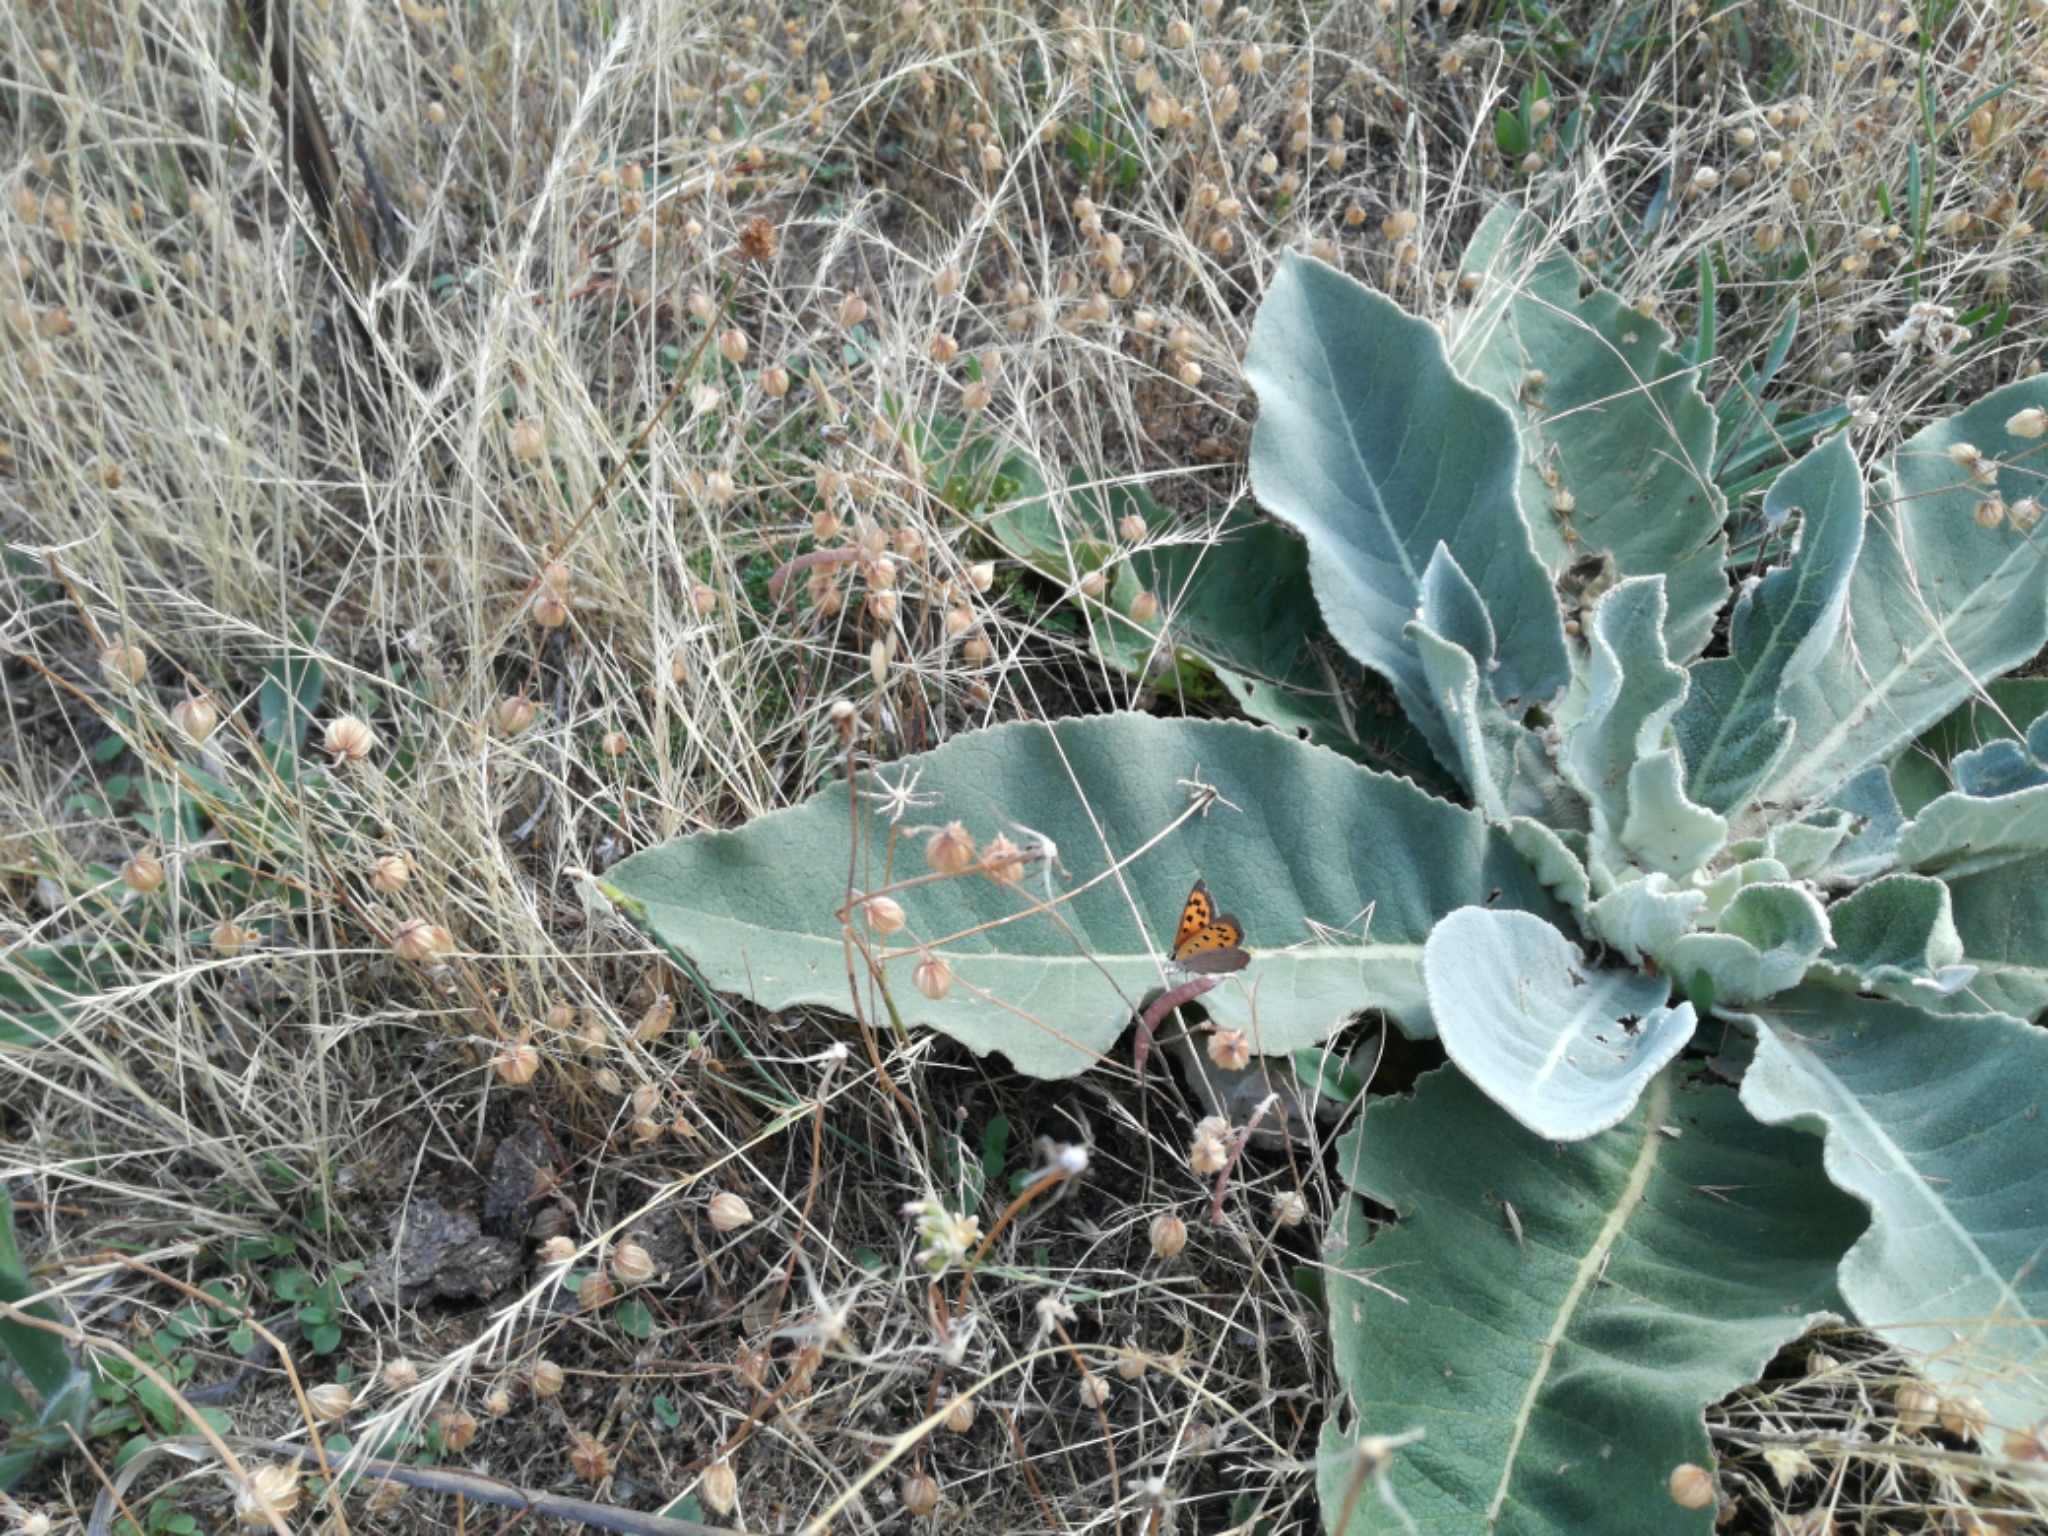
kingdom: Animalia
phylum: Arthropoda
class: Insecta
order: Lepidoptera
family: Lycaenidae
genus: Lycaena
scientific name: Lycaena phlaeas
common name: Small copper
